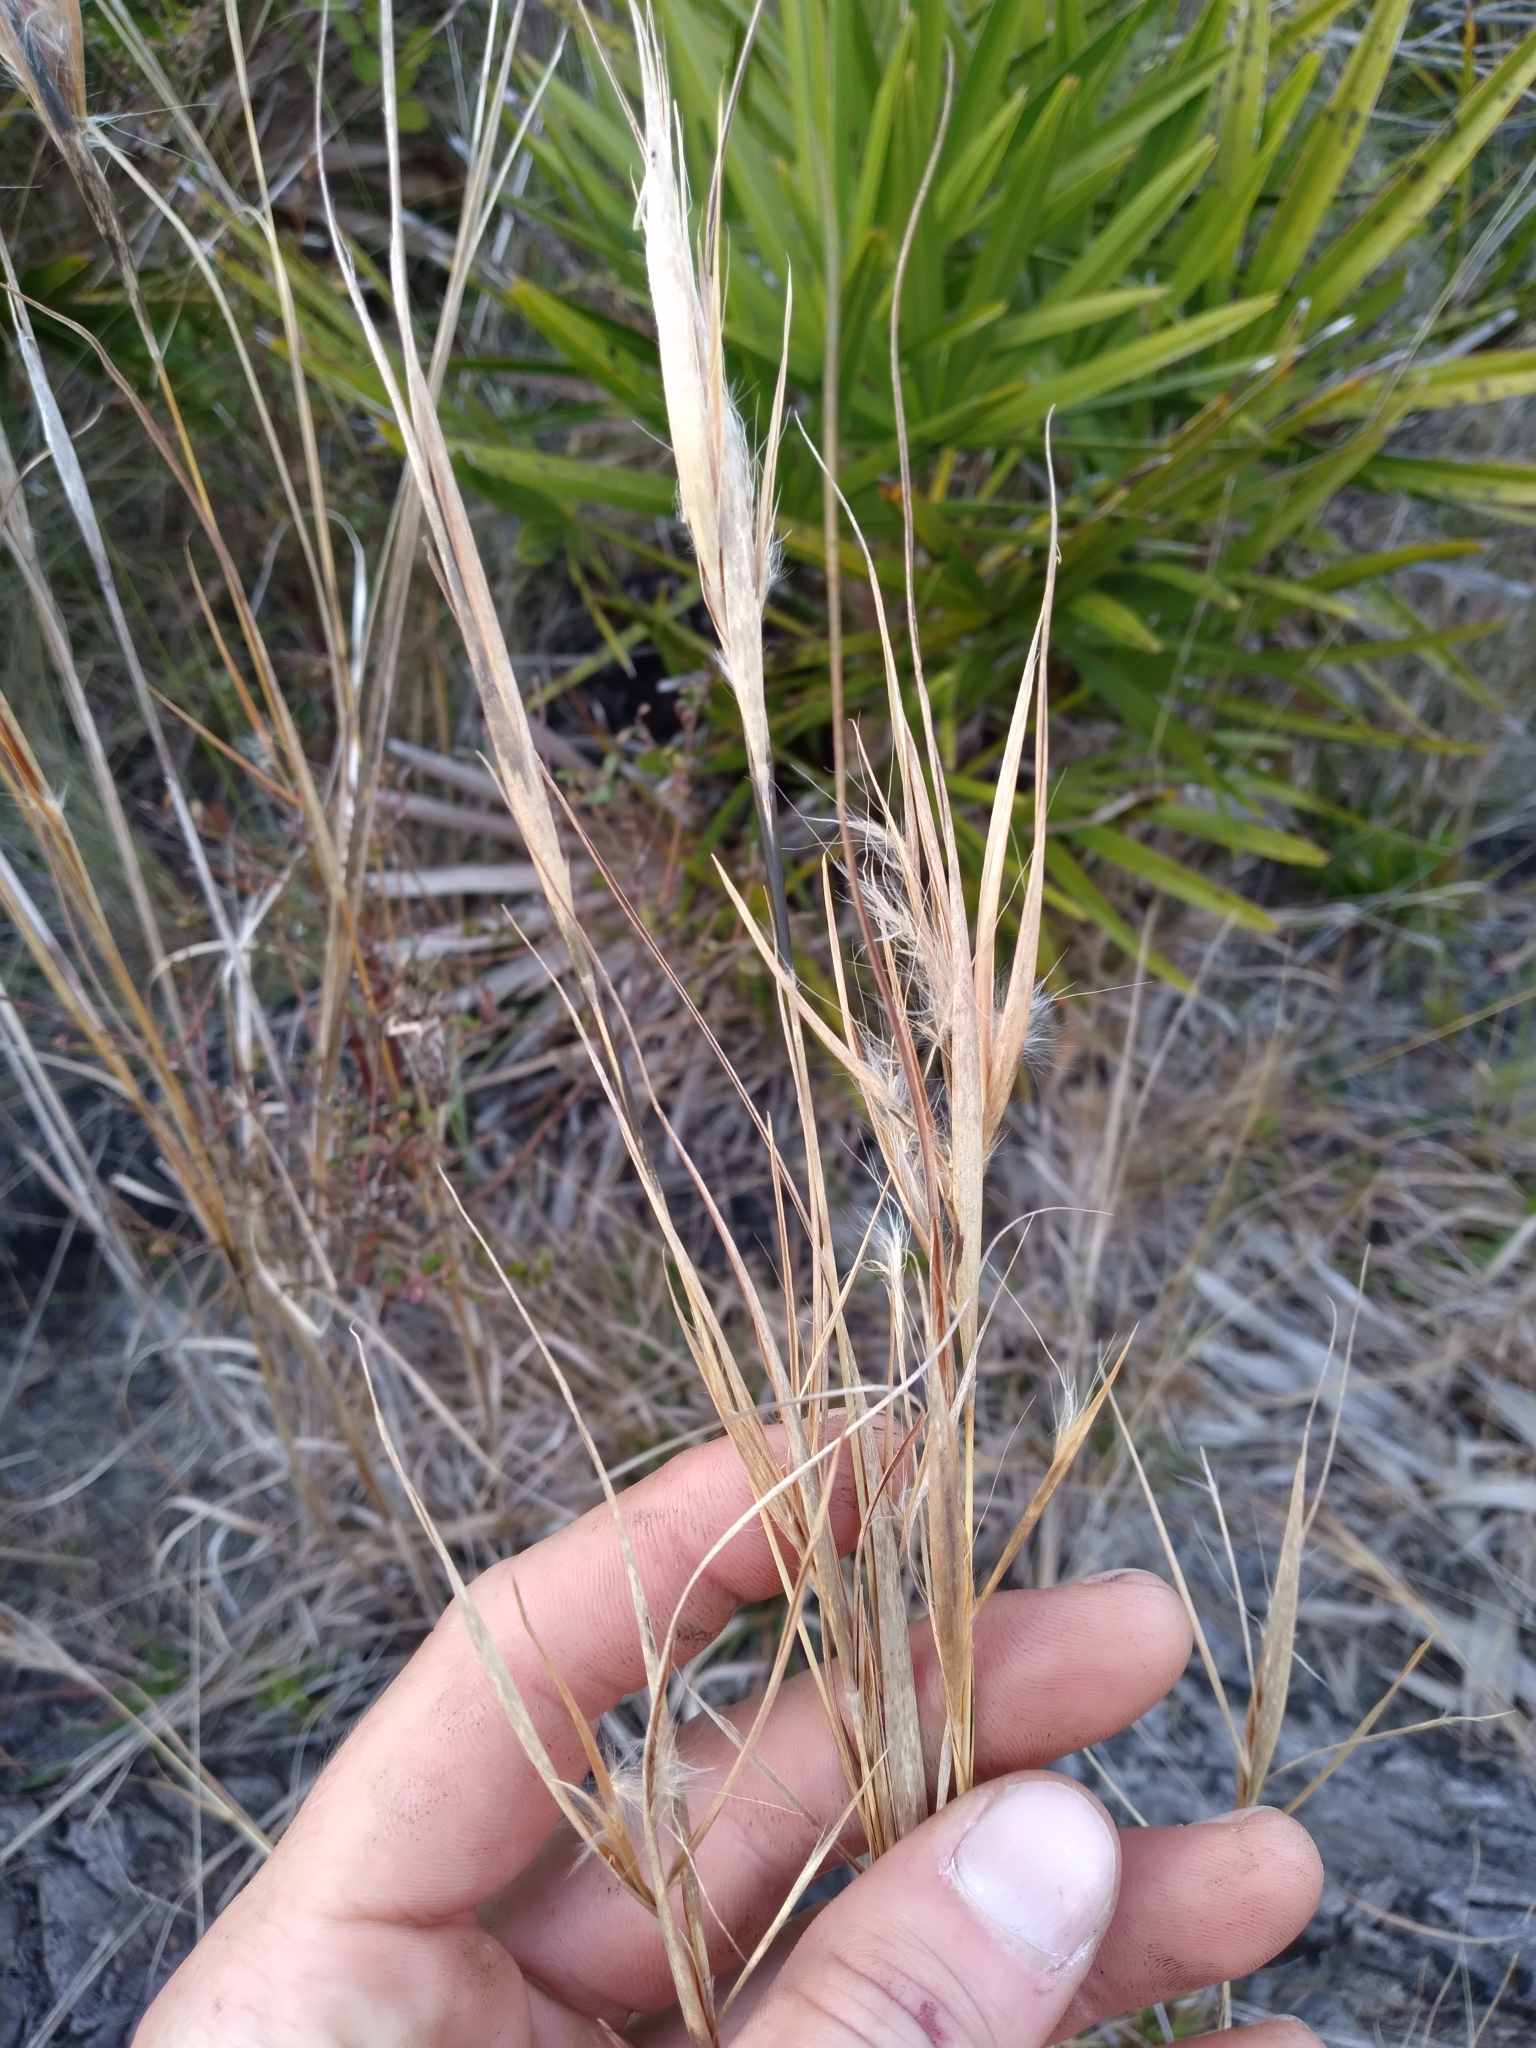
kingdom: Plantae
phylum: Tracheophyta
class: Liliopsida
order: Poales
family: Poaceae
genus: Andropogon
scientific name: Andropogon gyrans
